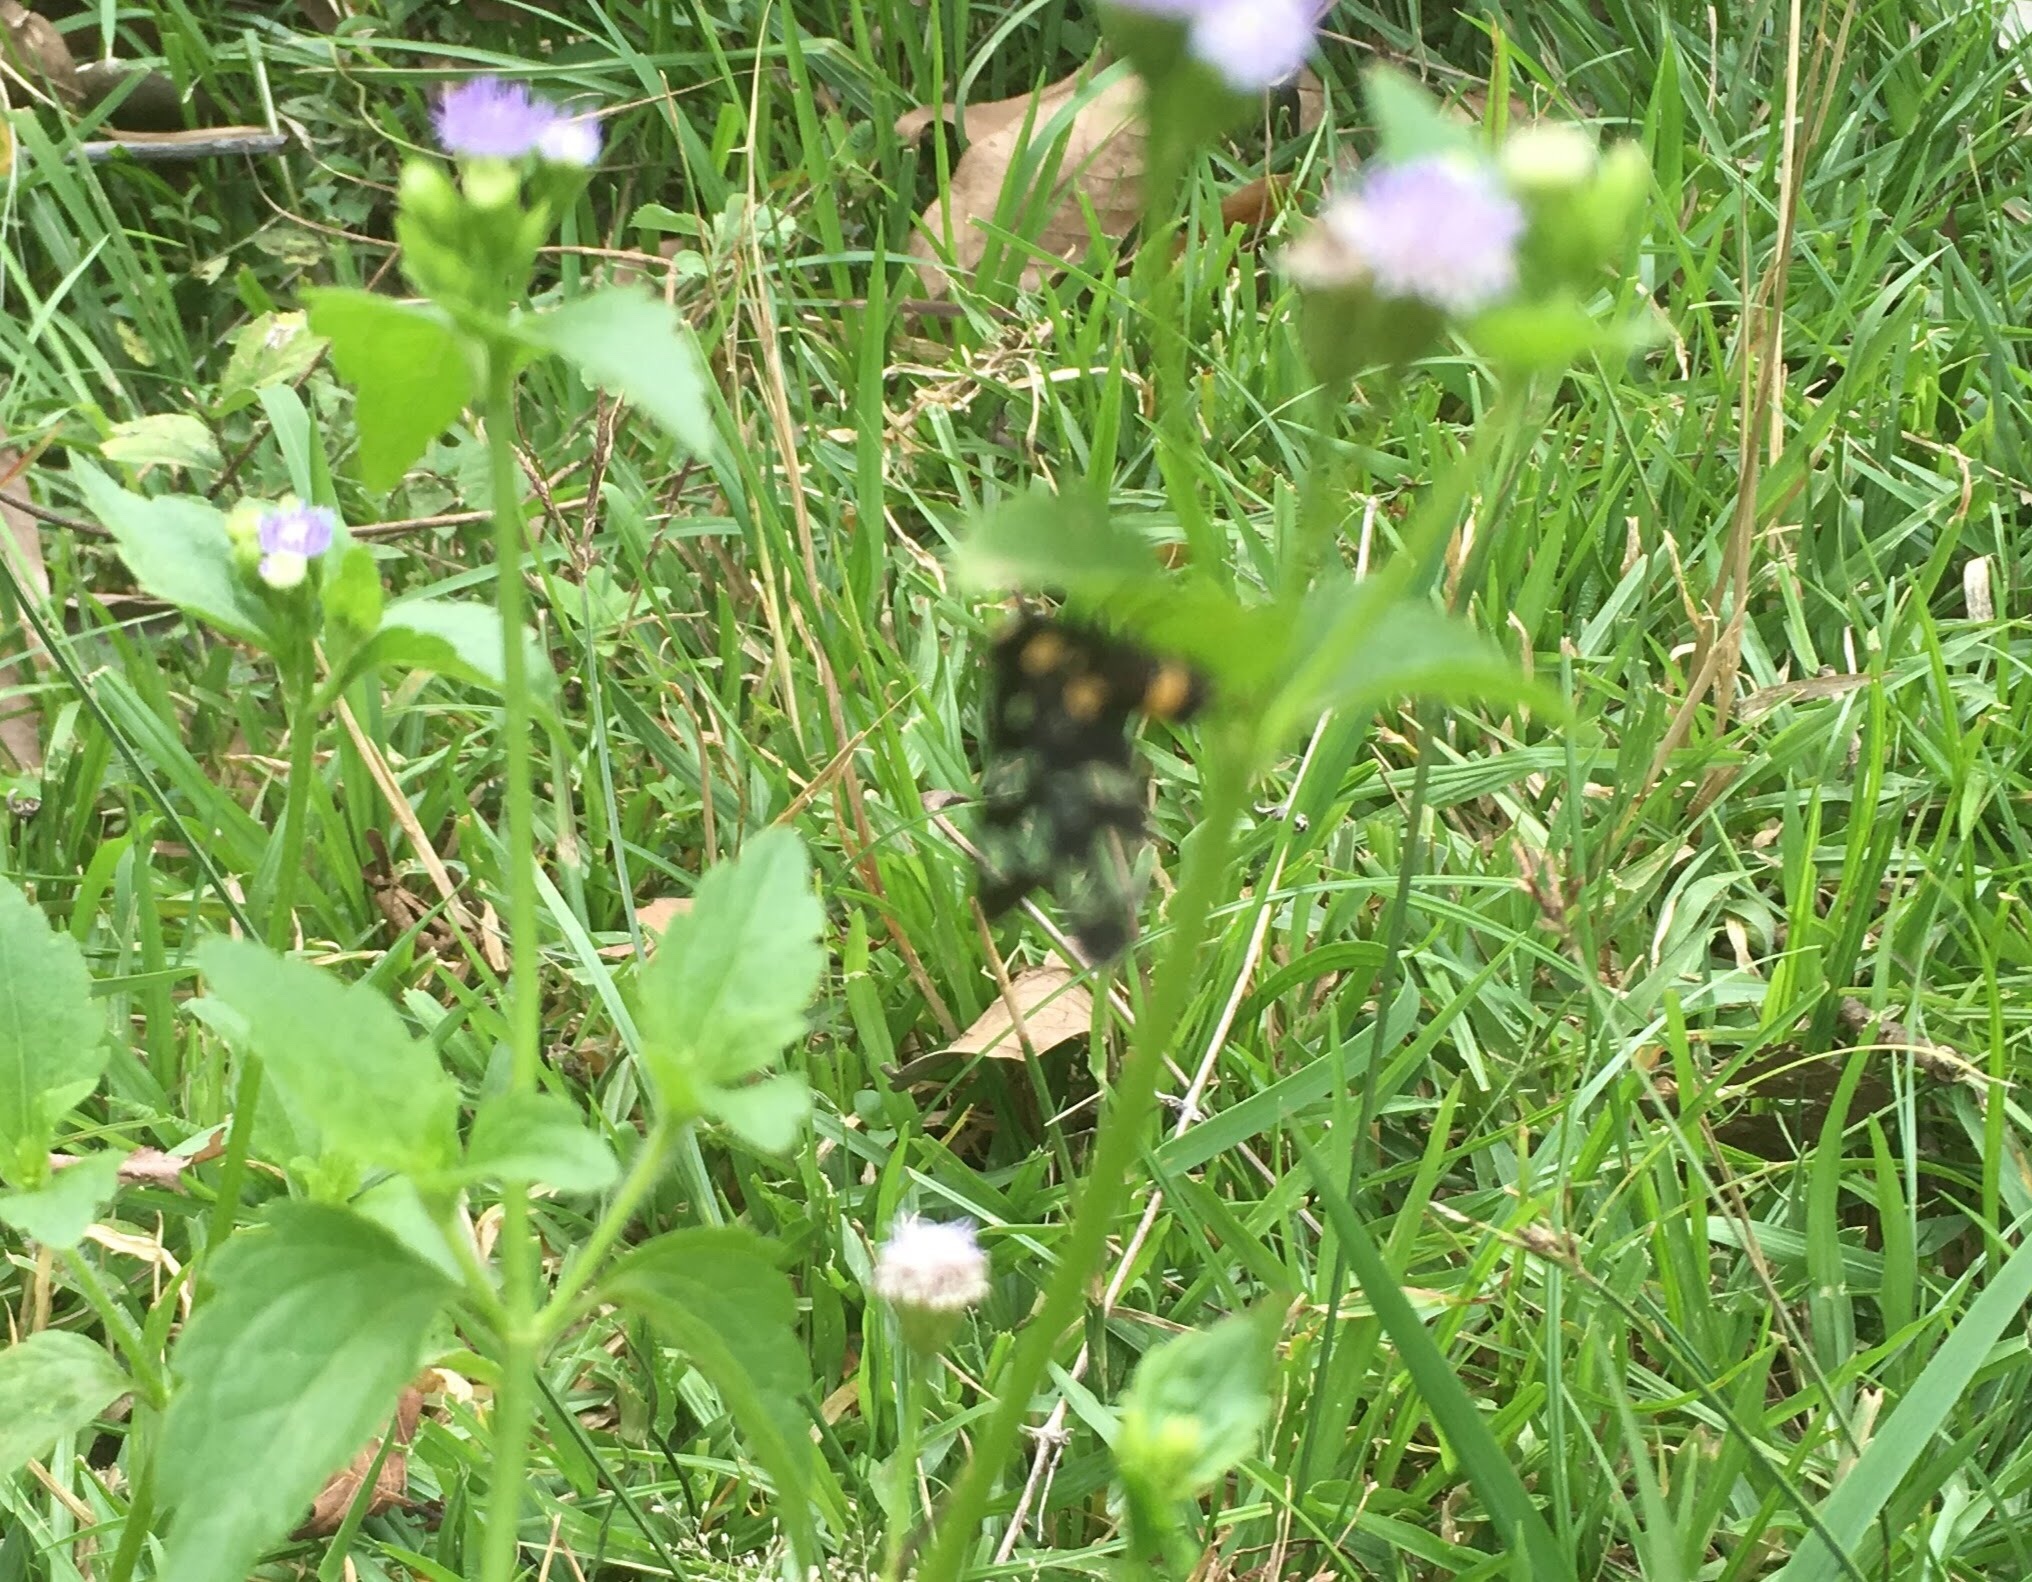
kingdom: Animalia
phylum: Arthropoda
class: Insecta
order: Lepidoptera
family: Erebidae
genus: Amata
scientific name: Amata sperbius
